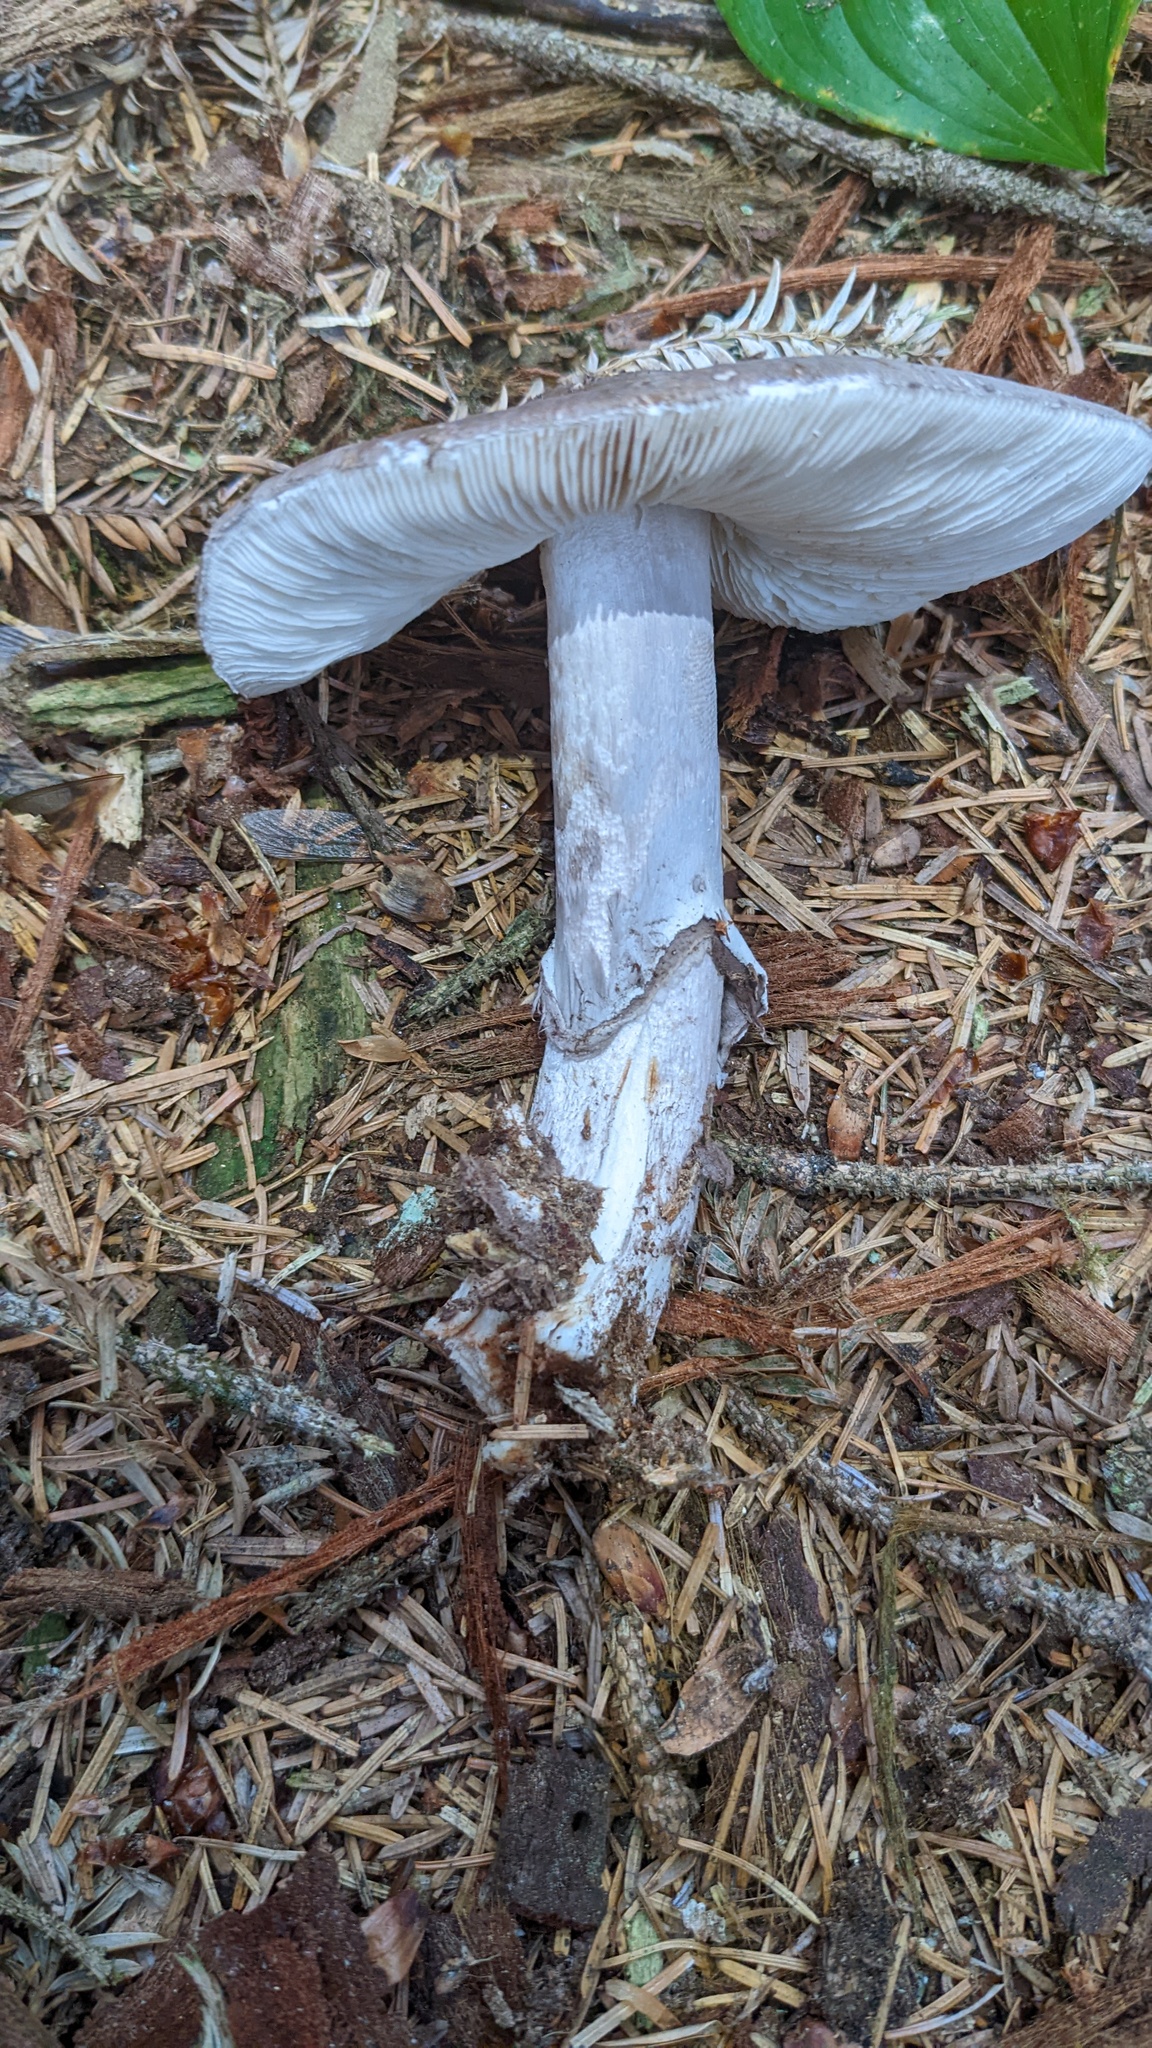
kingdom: Fungi
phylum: Basidiomycota
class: Agaricomycetes
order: Agaricales
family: Amanitaceae
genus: Amanita
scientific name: Amanita porphyria
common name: Grey veiled amanita
